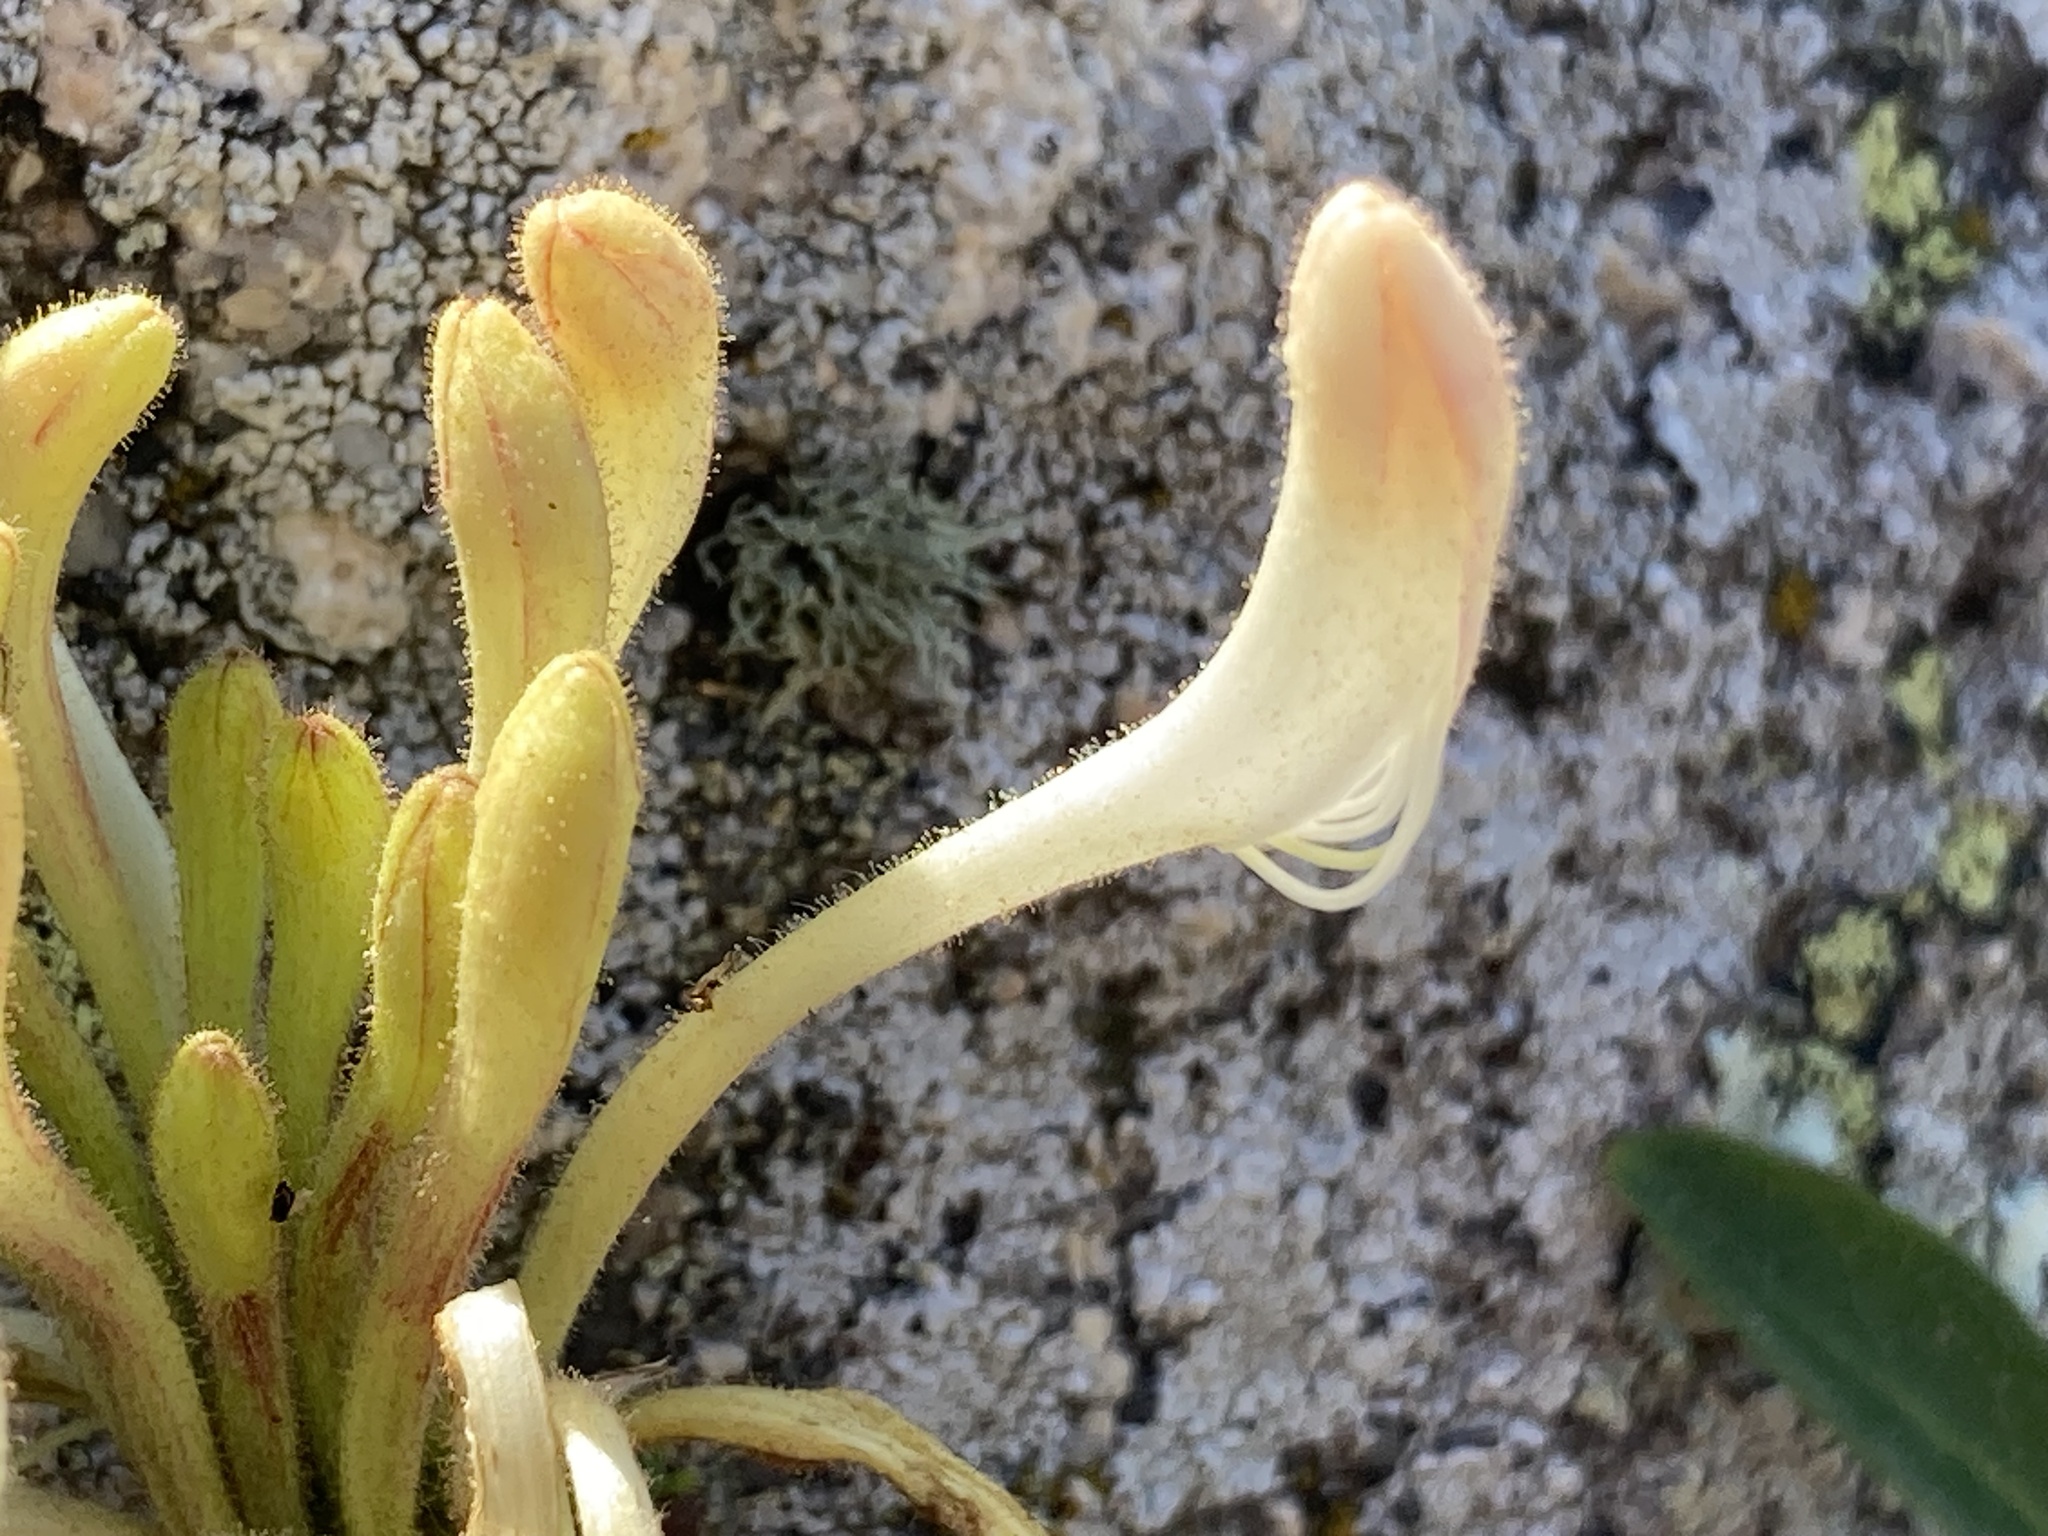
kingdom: Plantae
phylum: Tracheophyta
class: Magnoliopsida
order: Dipsacales
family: Caprifoliaceae
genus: Lonicera
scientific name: Lonicera periclymenum
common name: European honeysuckle
